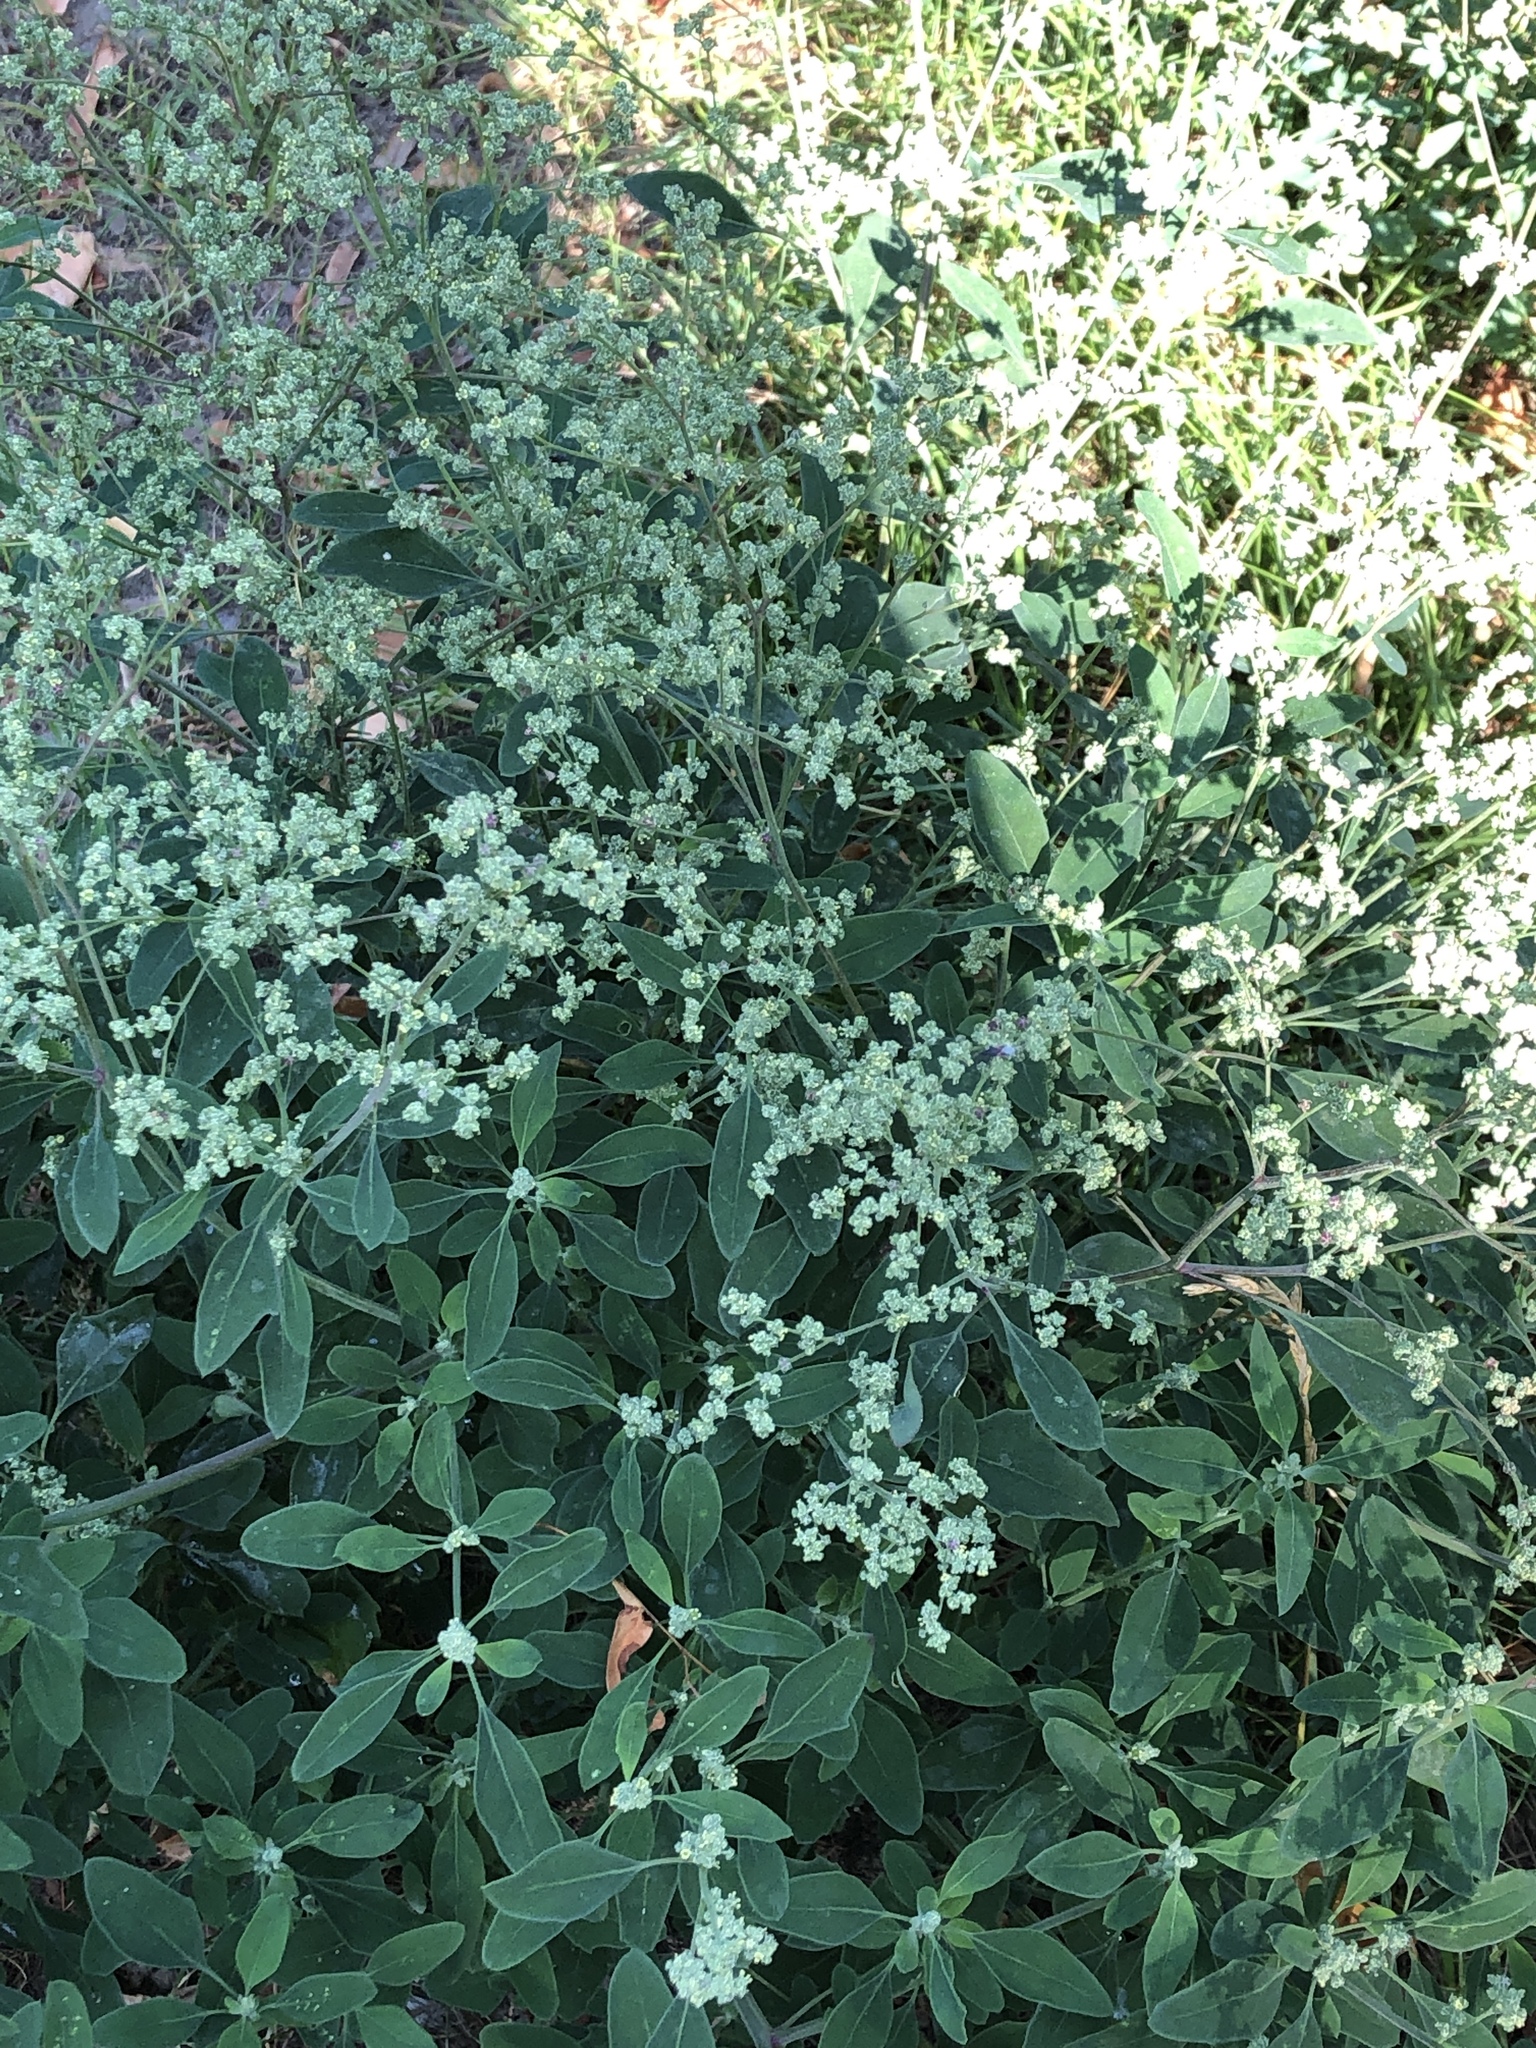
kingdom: Plantae
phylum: Tracheophyta
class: Magnoliopsida
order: Caryophyllales
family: Amaranthaceae
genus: Chenopodium
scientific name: Chenopodium album
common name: Fat-hen
